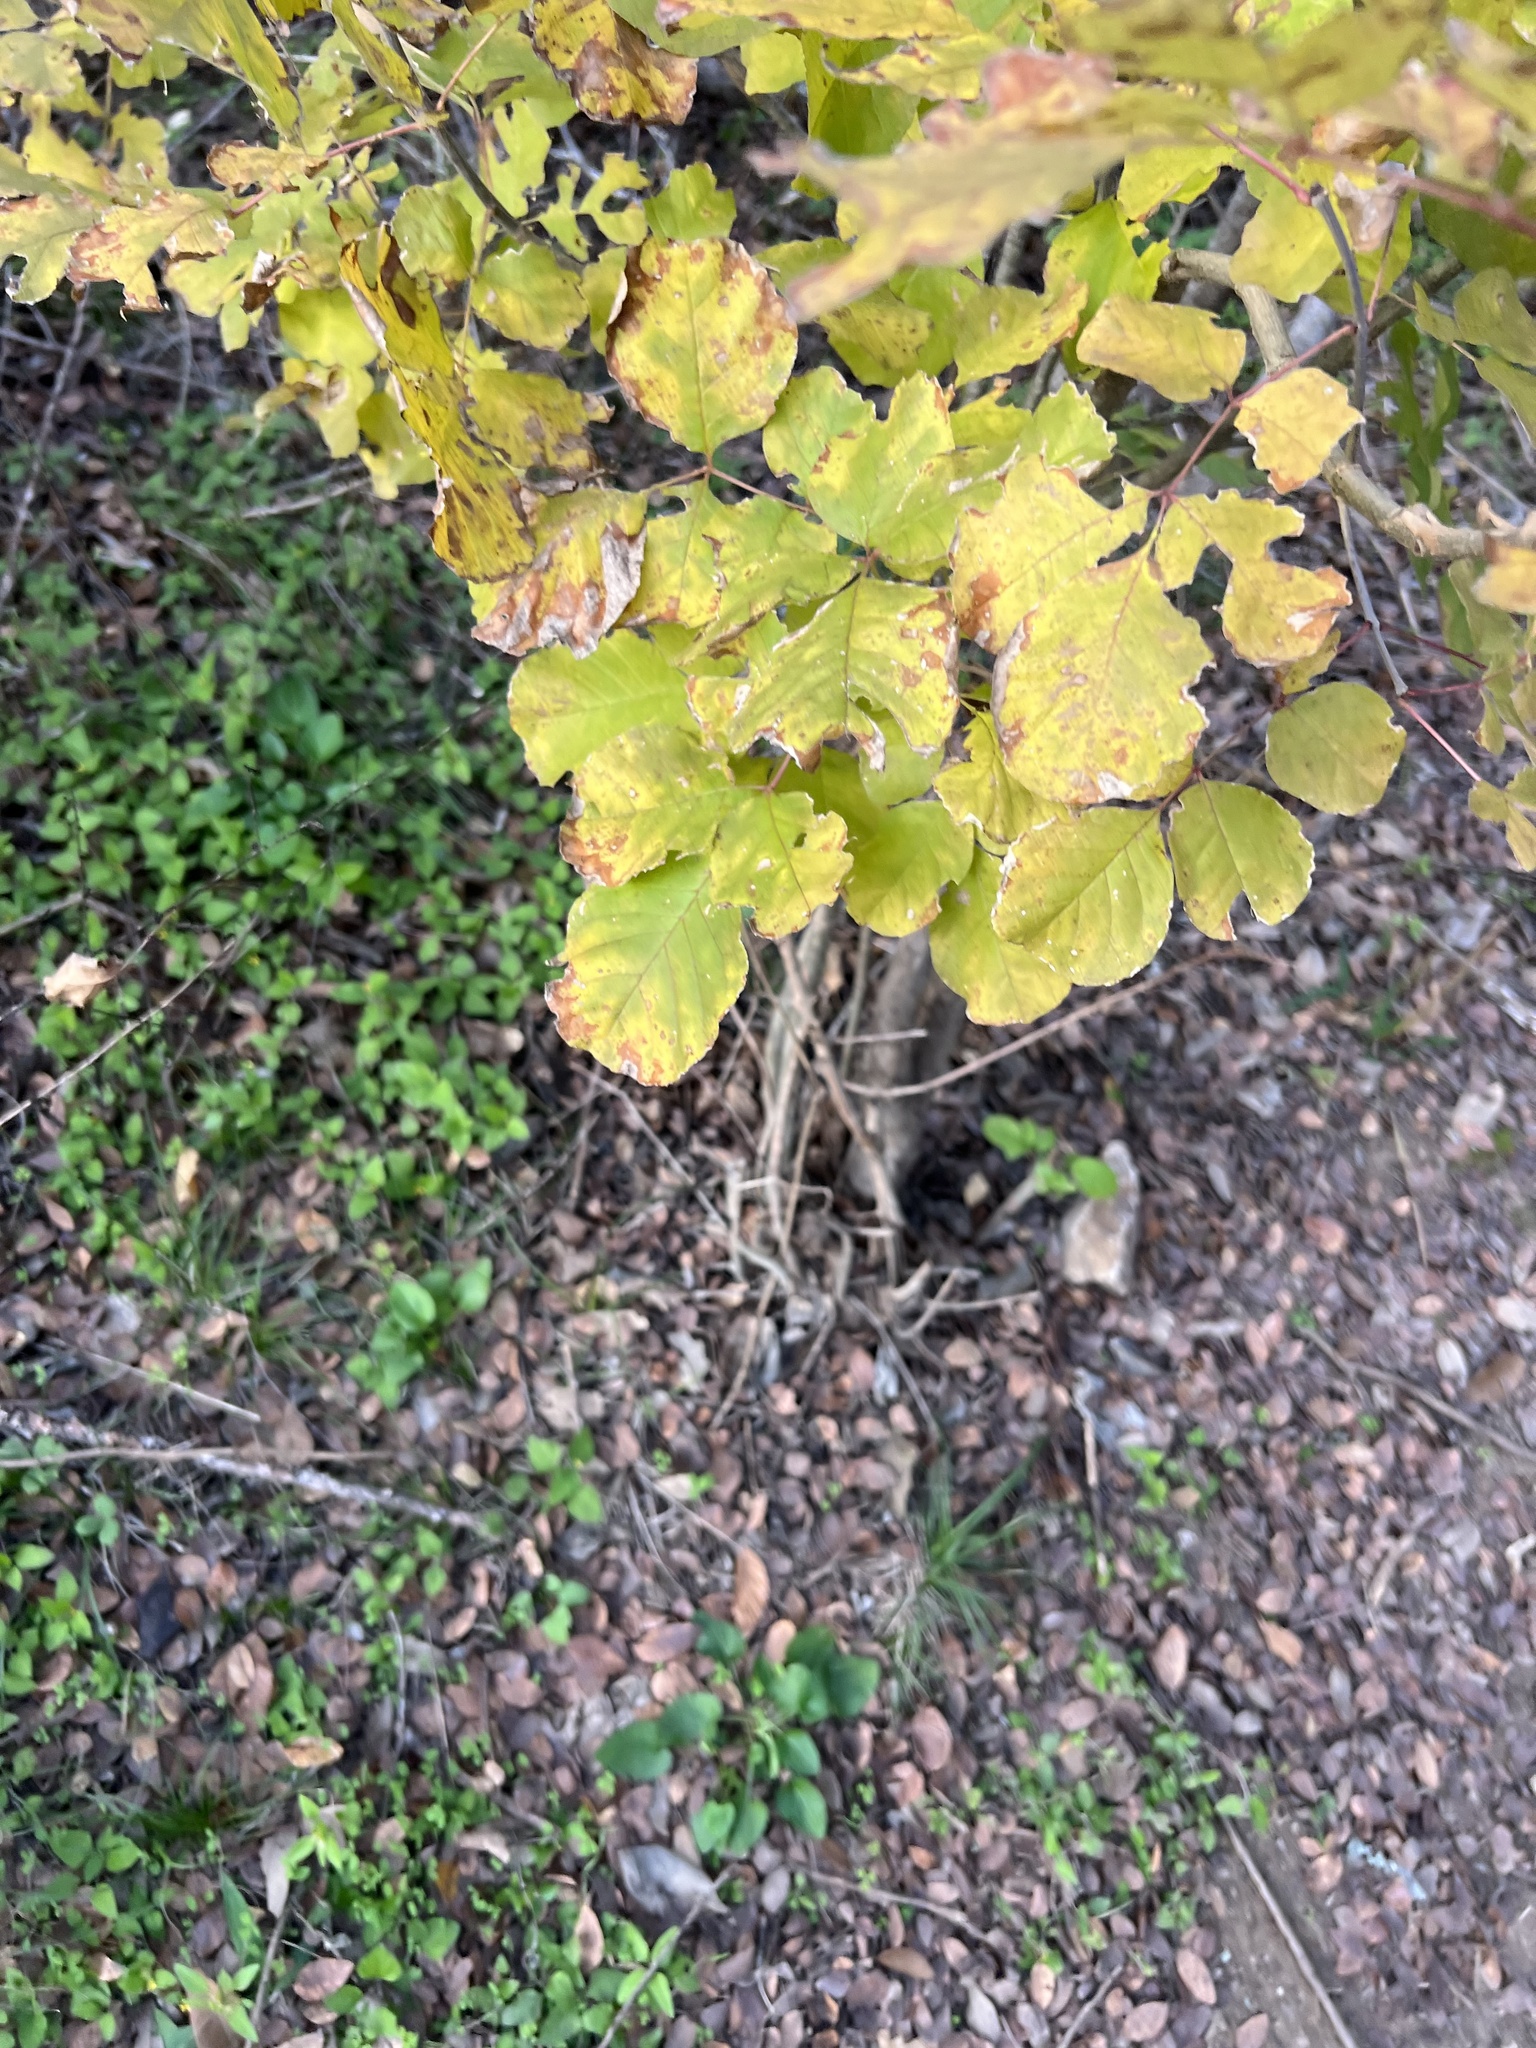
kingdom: Plantae
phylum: Tracheophyta
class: Magnoliopsida
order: Lamiales
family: Oleaceae
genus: Fraxinus
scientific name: Fraxinus albicans
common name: Texas ash
